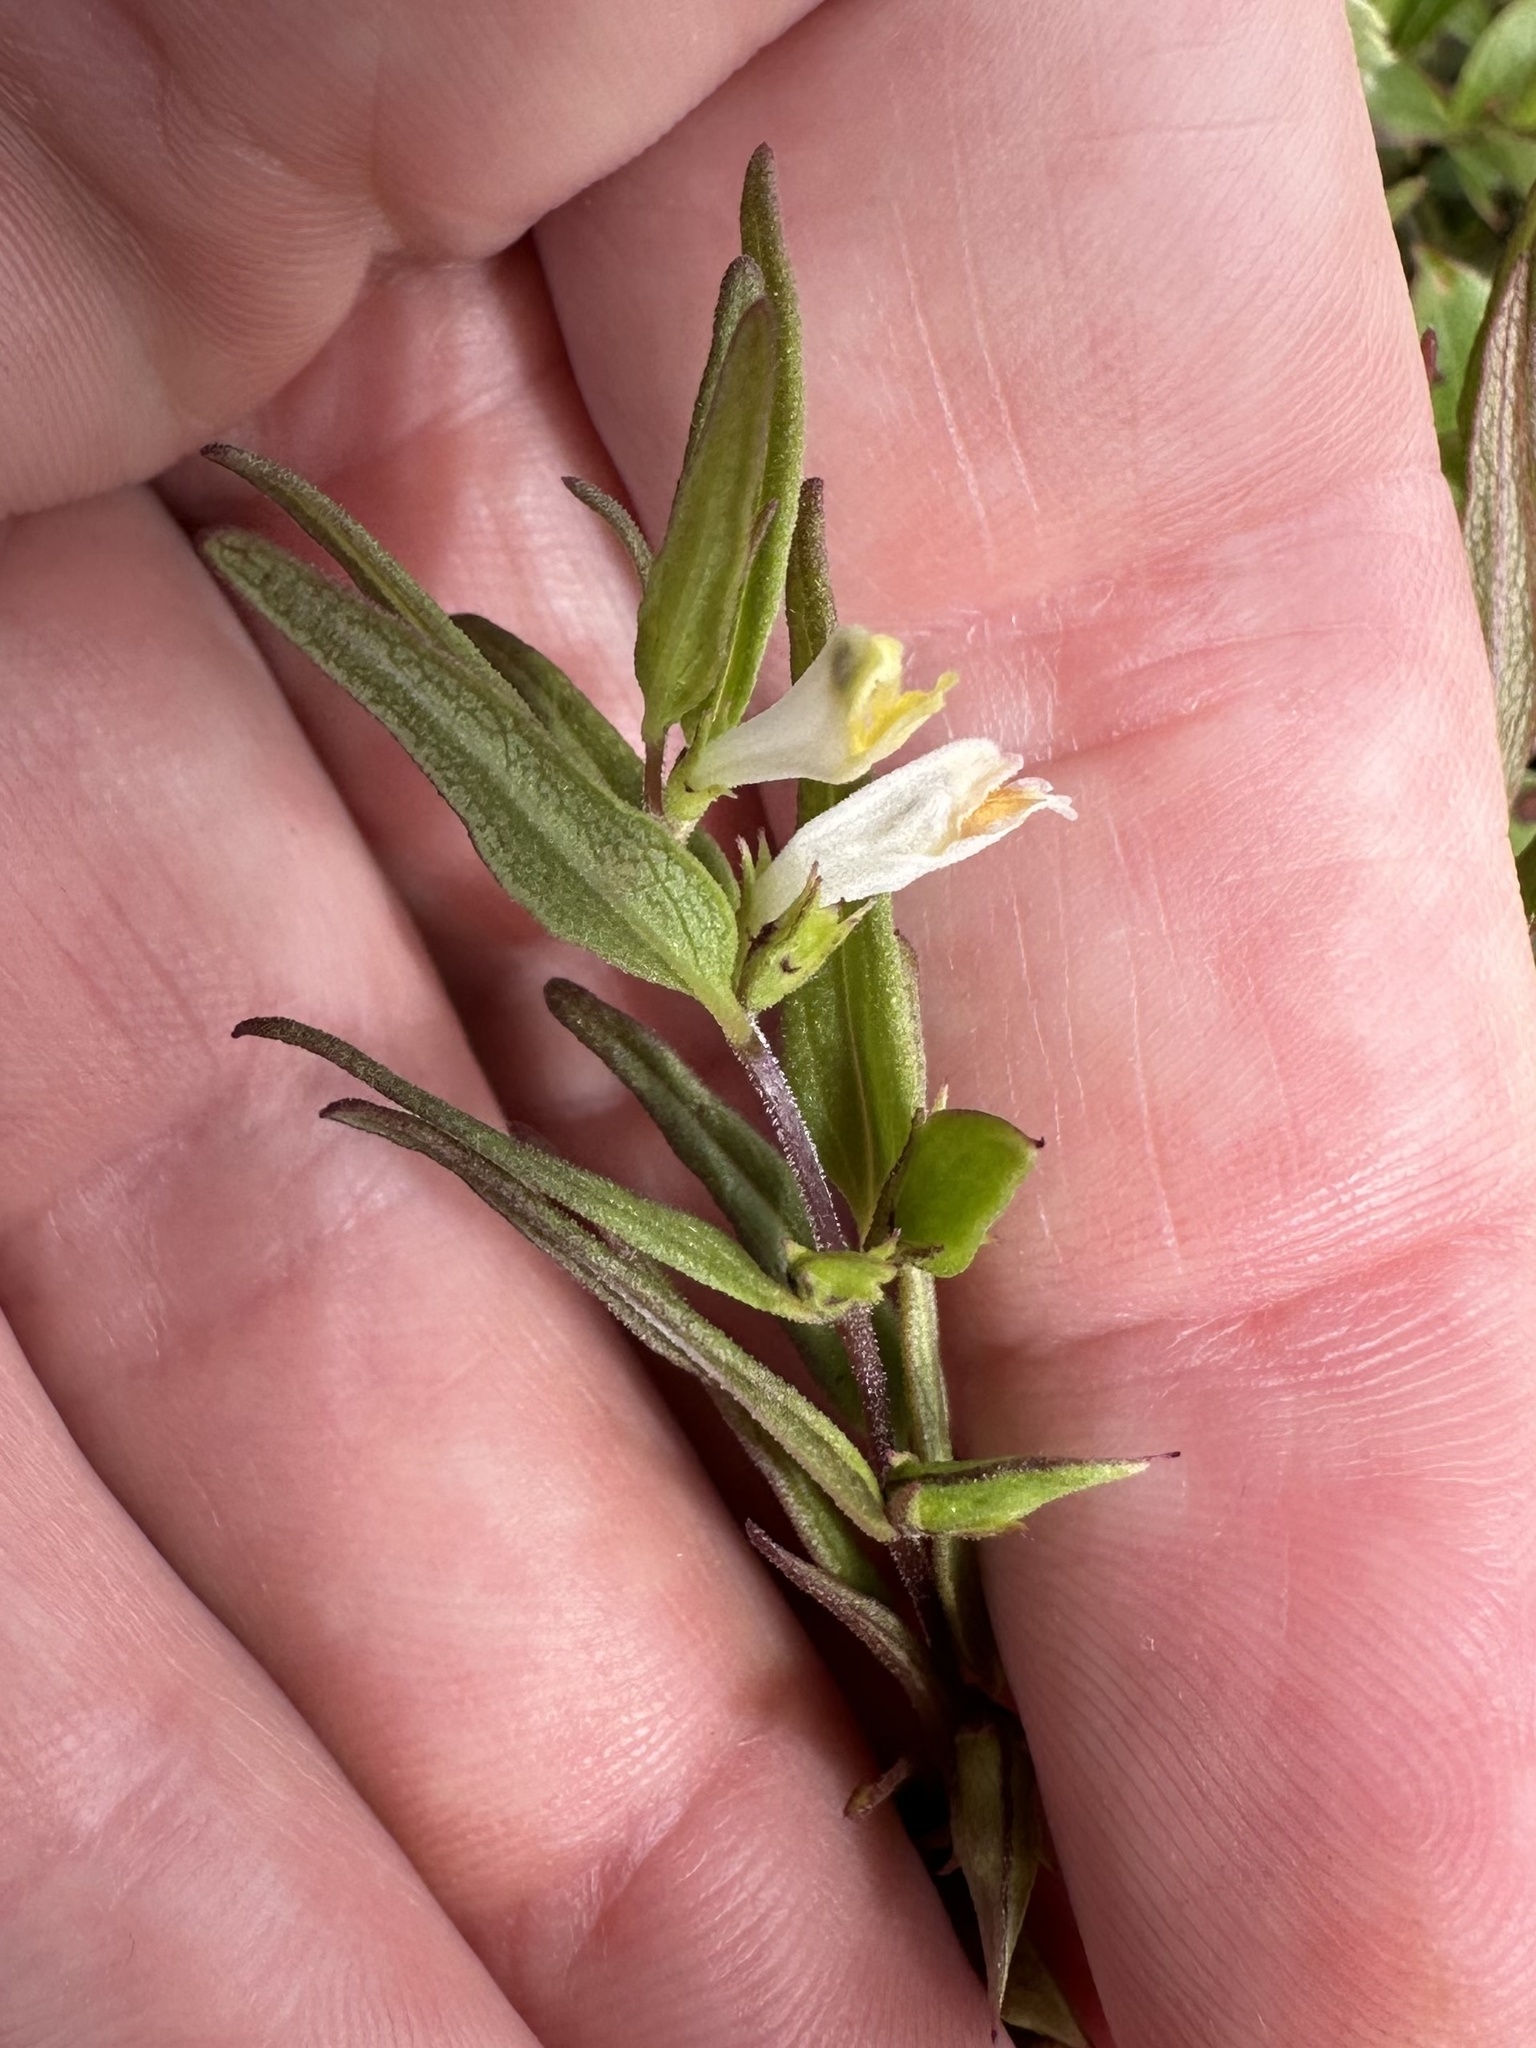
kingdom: Plantae
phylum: Tracheophyta
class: Magnoliopsida
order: Lamiales
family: Orobanchaceae
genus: Melampyrum
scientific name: Melampyrum lineare
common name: American cow-wheat
